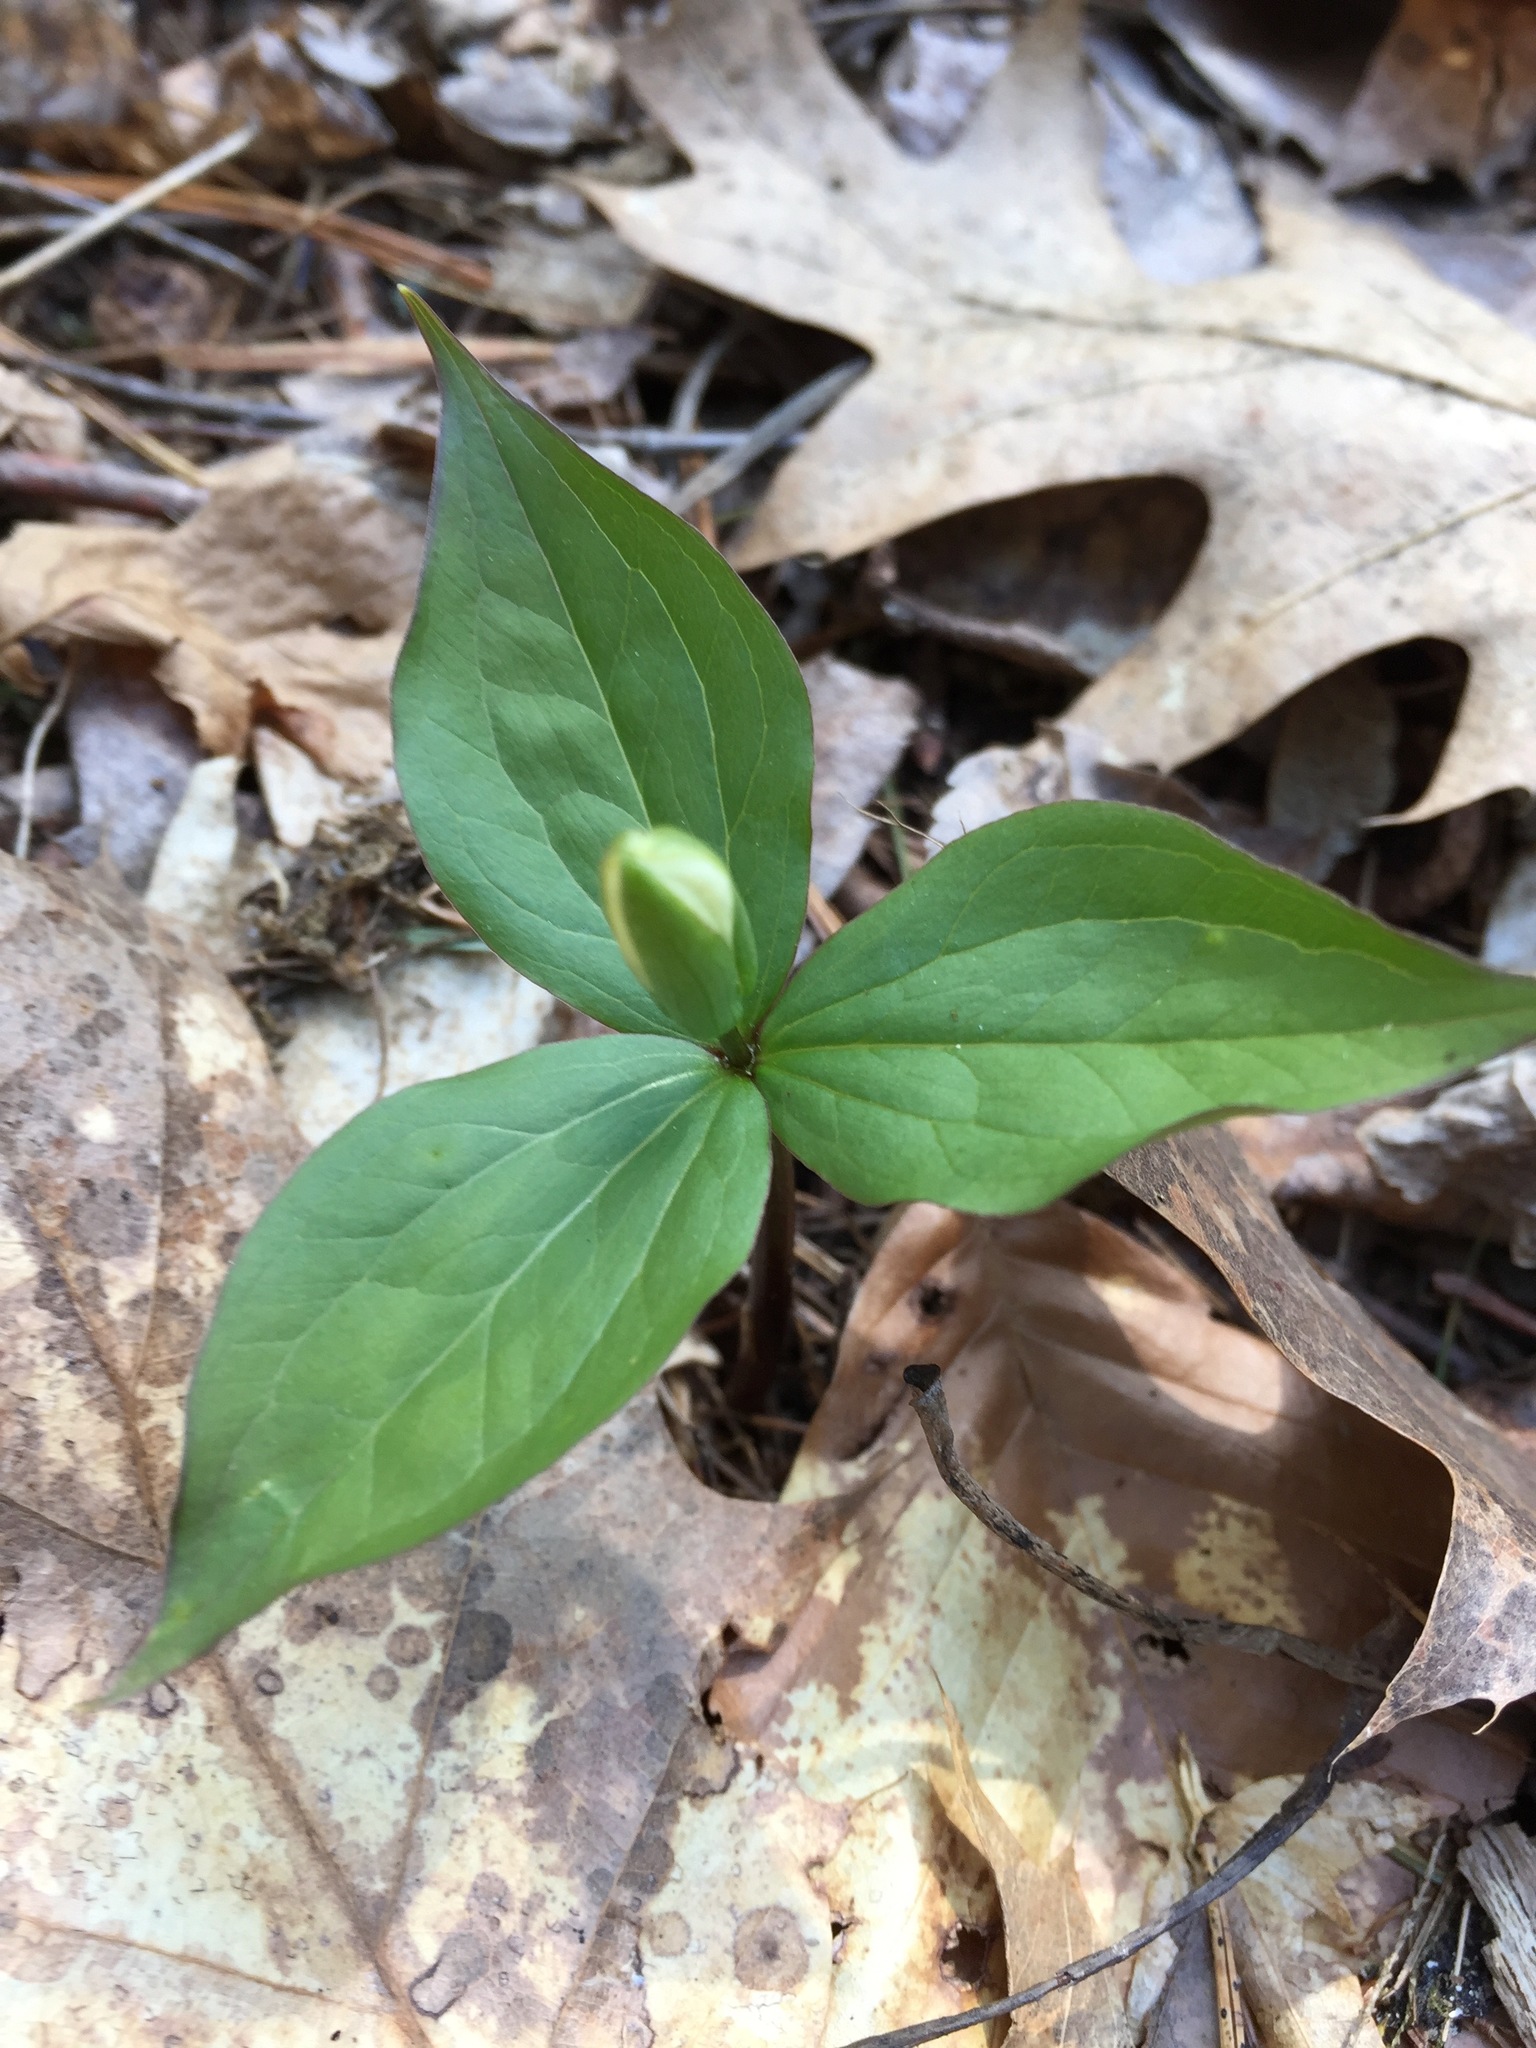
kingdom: Plantae
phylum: Tracheophyta
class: Liliopsida
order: Liliales
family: Melanthiaceae
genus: Trillium
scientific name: Trillium grandiflorum
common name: Great white trillium
